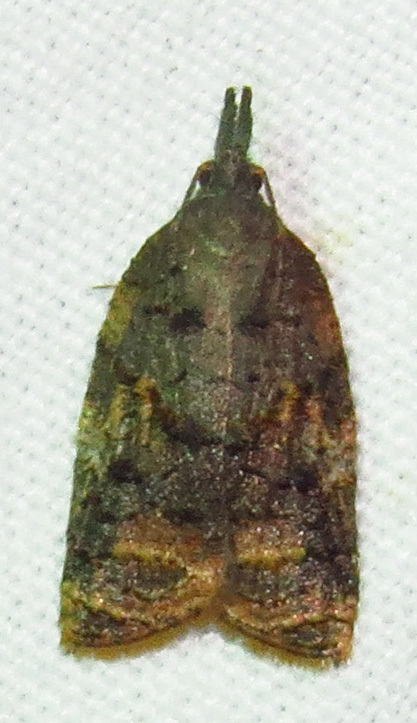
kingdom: Animalia
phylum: Arthropoda
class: Insecta
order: Lepidoptera
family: Tortricidae
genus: Platynota
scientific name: Platynota idaeusalis
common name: Tufted apple bud moth
